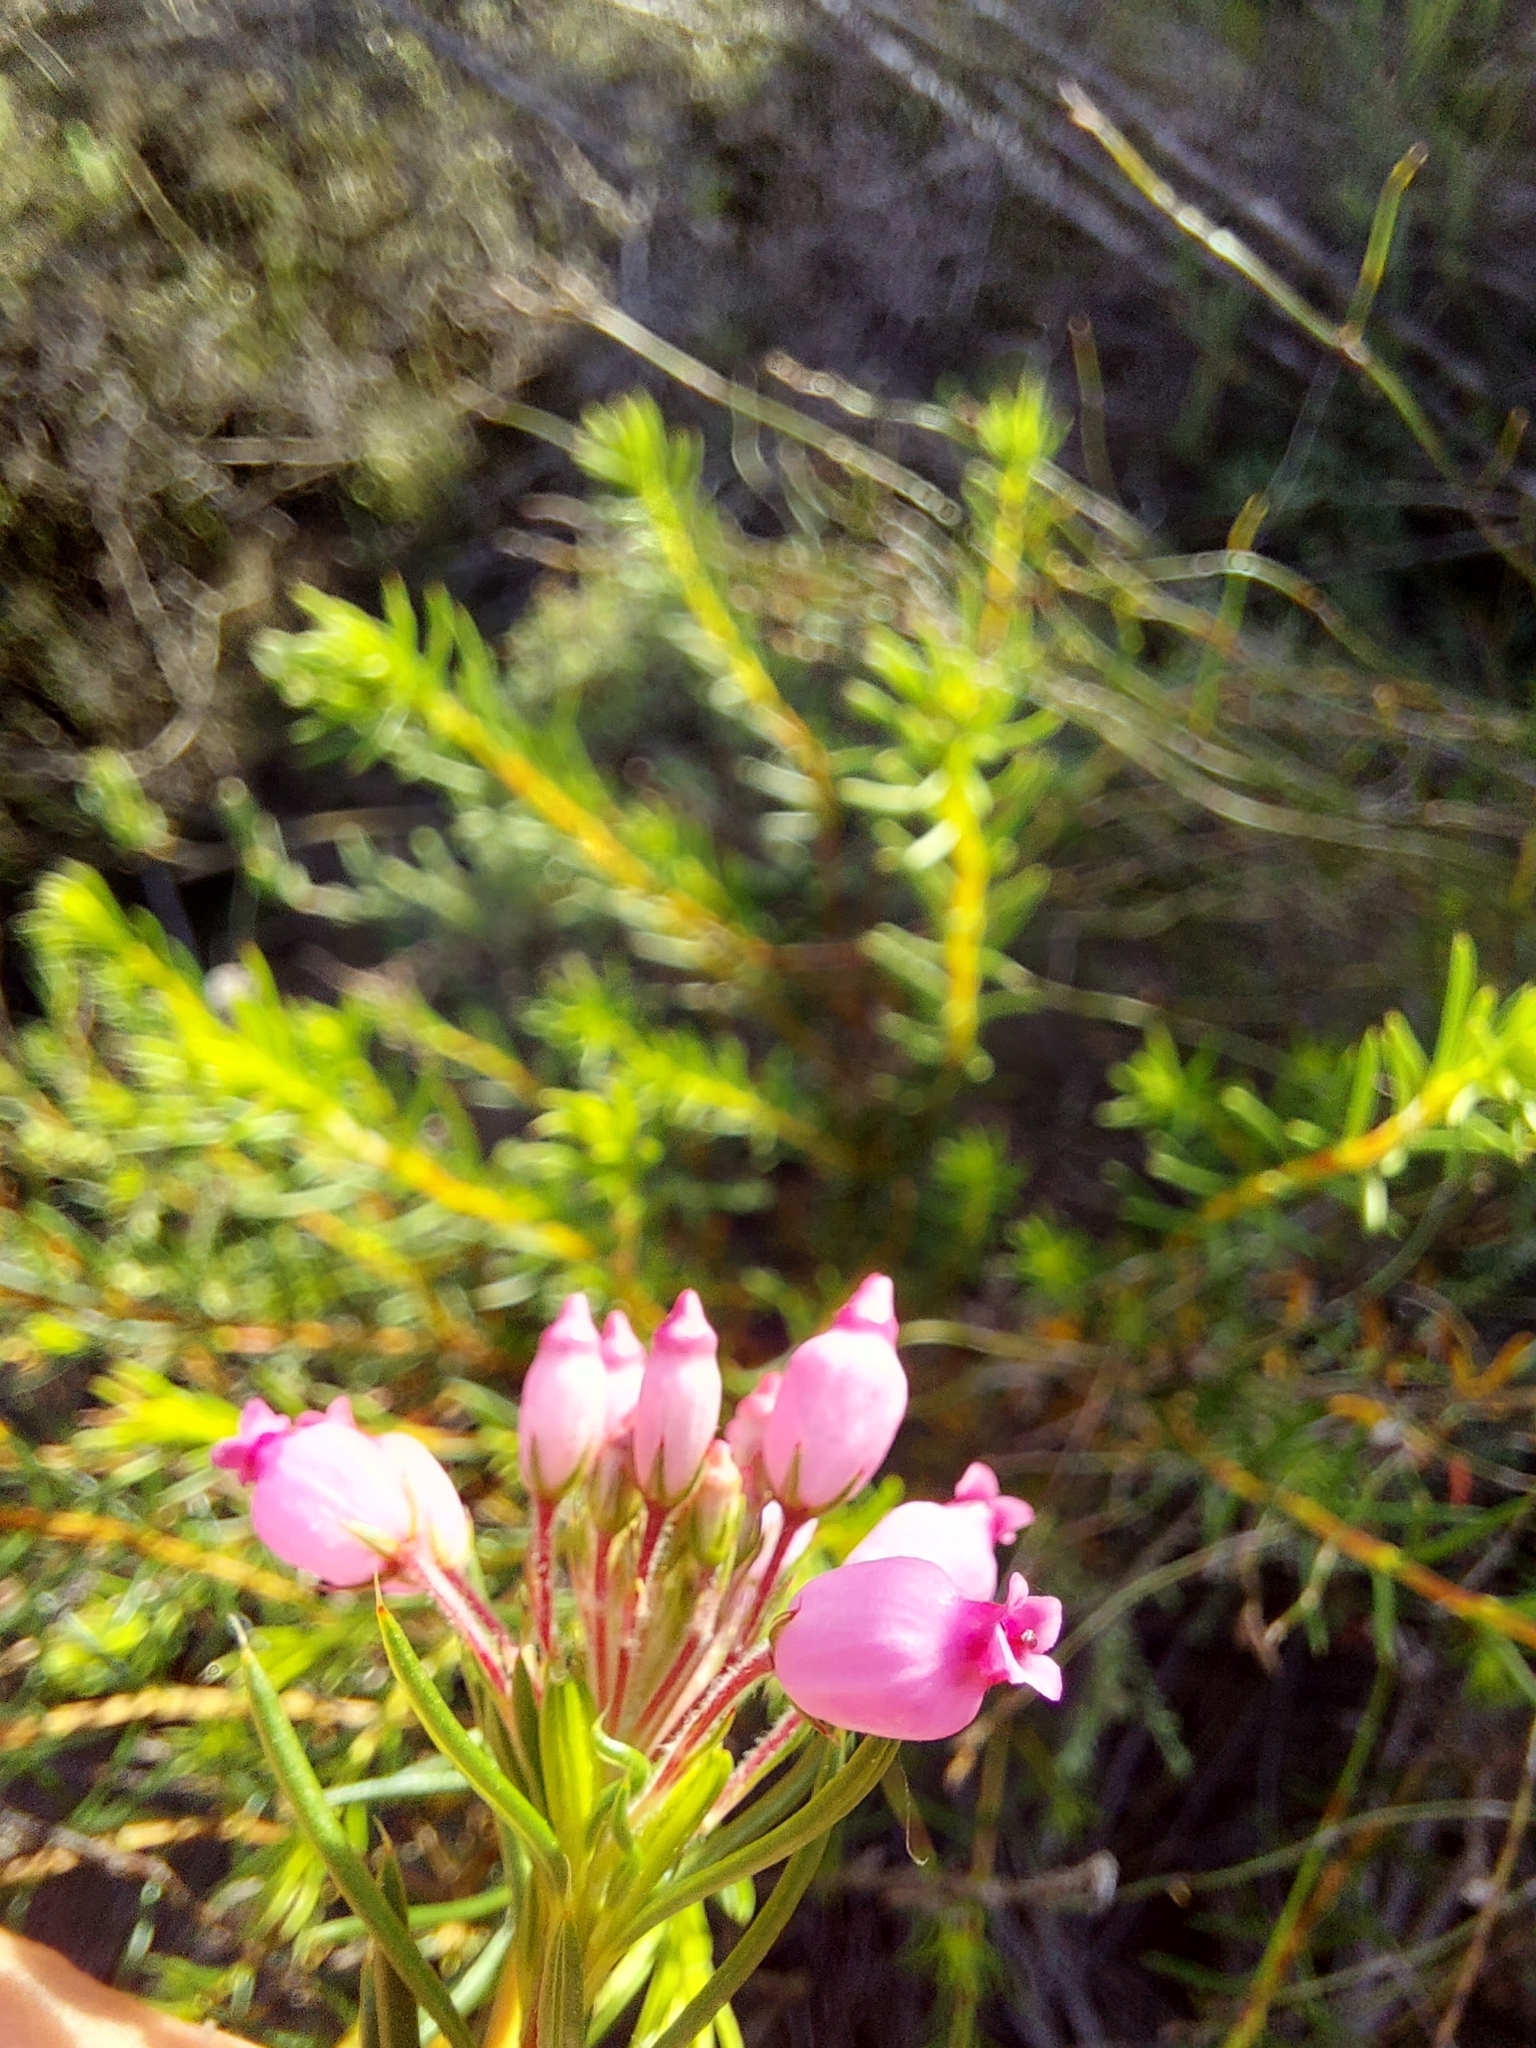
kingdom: Plantae
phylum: Tracheophyta
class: Magnoliopsida
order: Ericales
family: Ericaceae
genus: Erica
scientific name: Erica inflata
